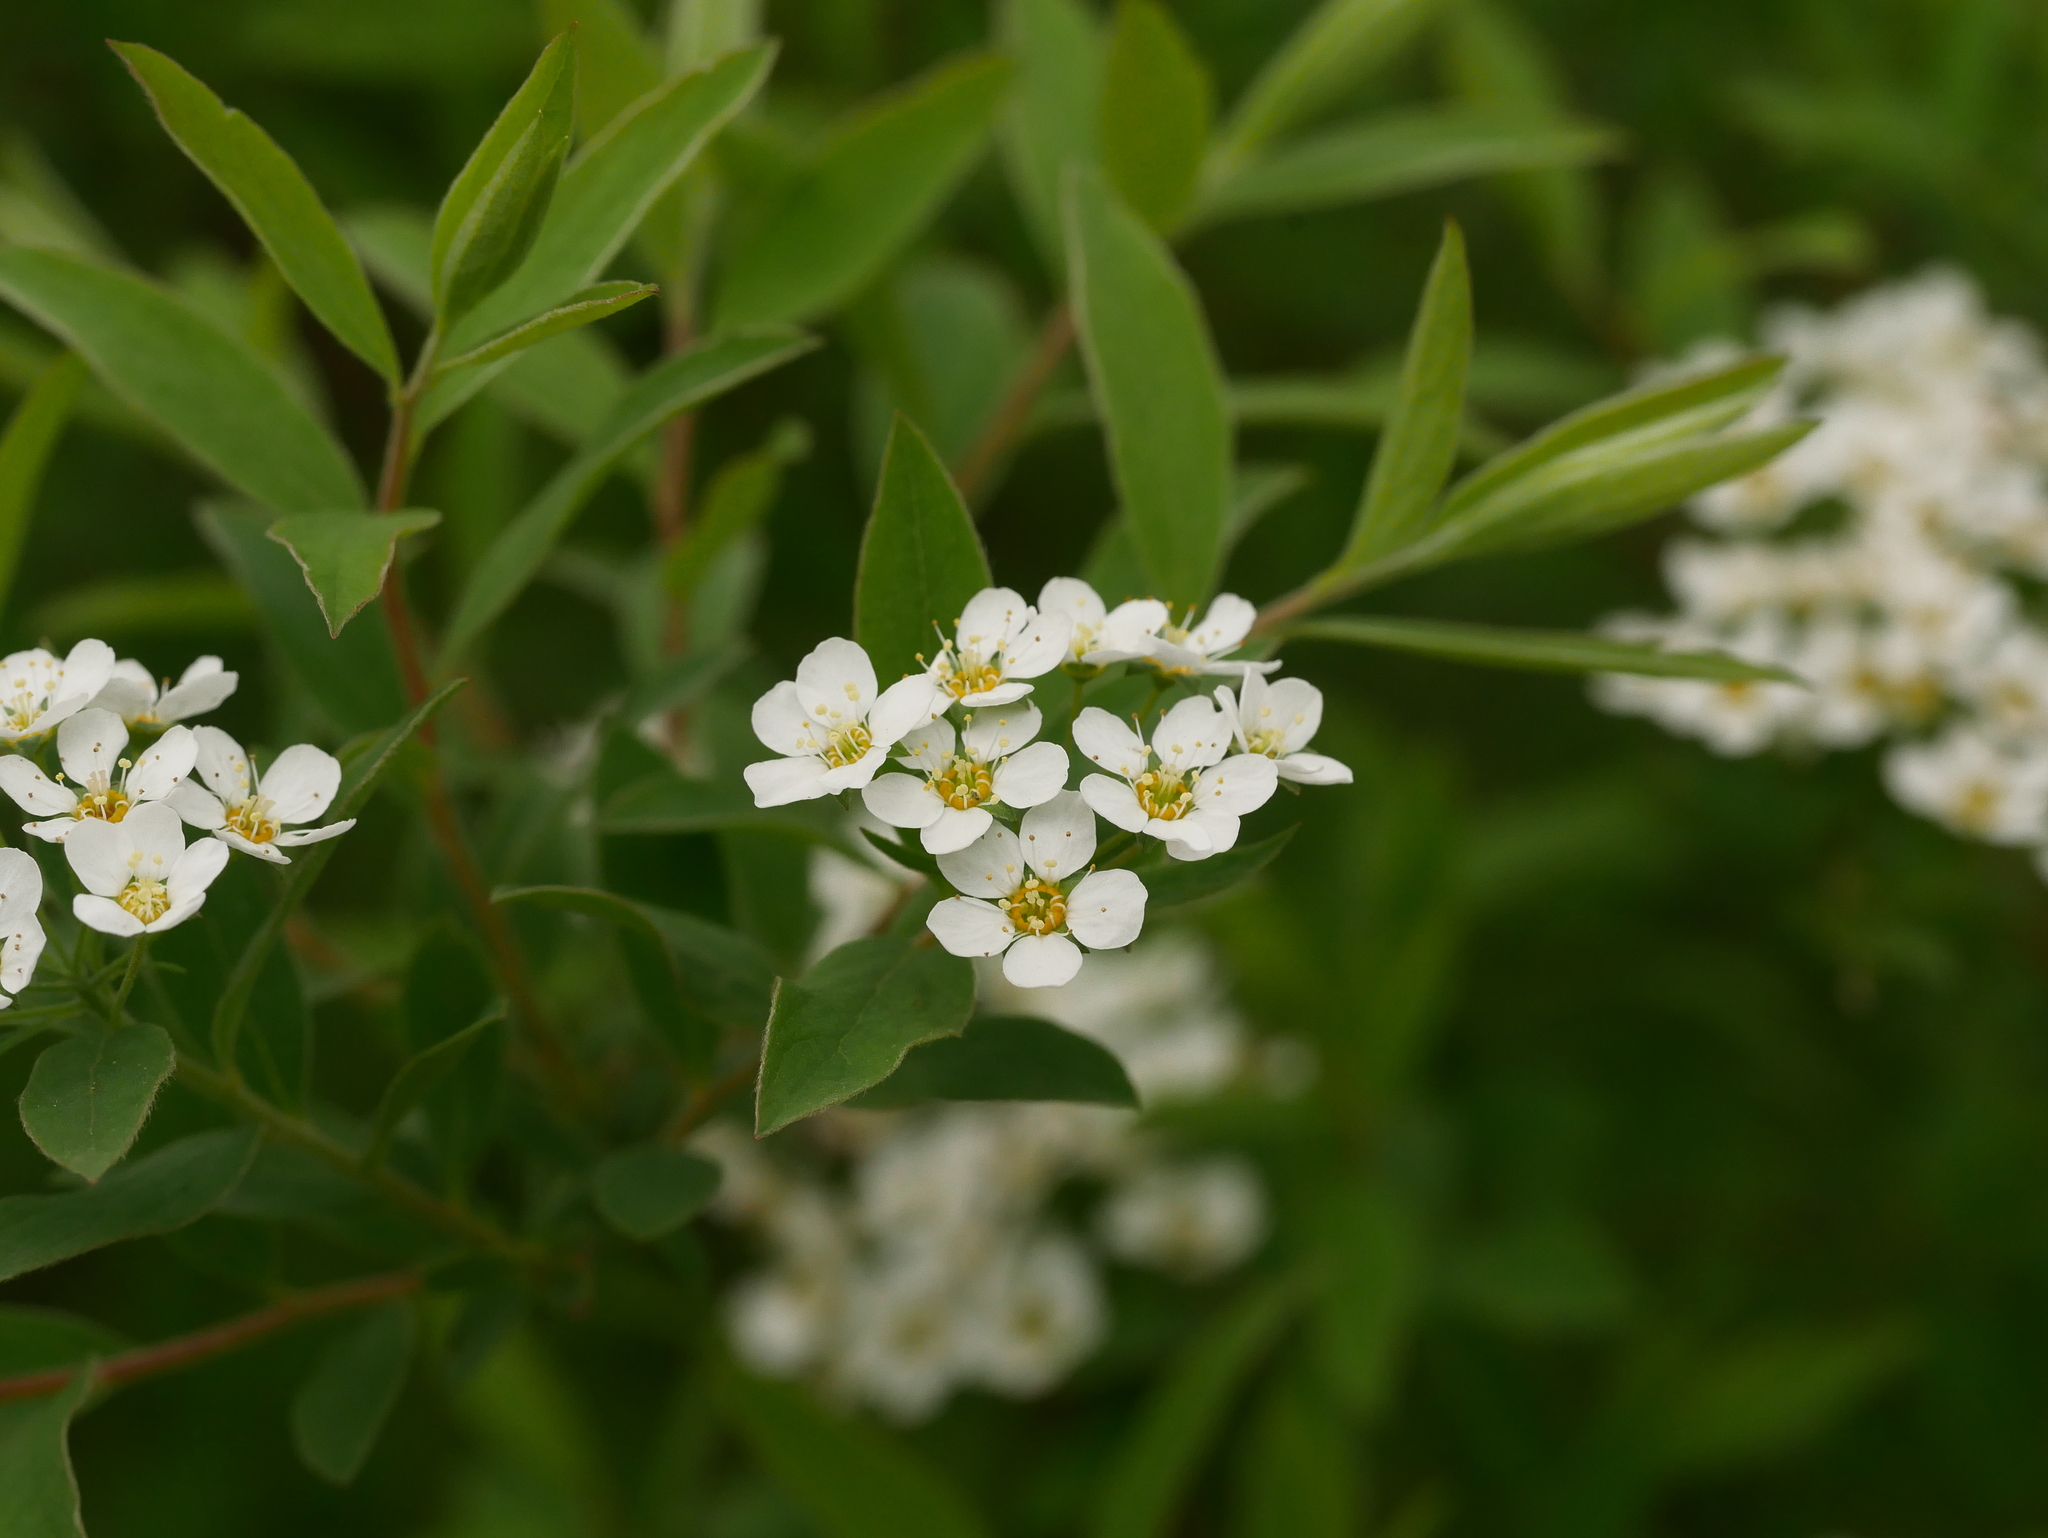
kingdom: Plantae
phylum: Tracheophyta
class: Magnoliopsida
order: Rosales
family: Rosaceae
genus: Spiraea
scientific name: Spiraea vanhouttei
